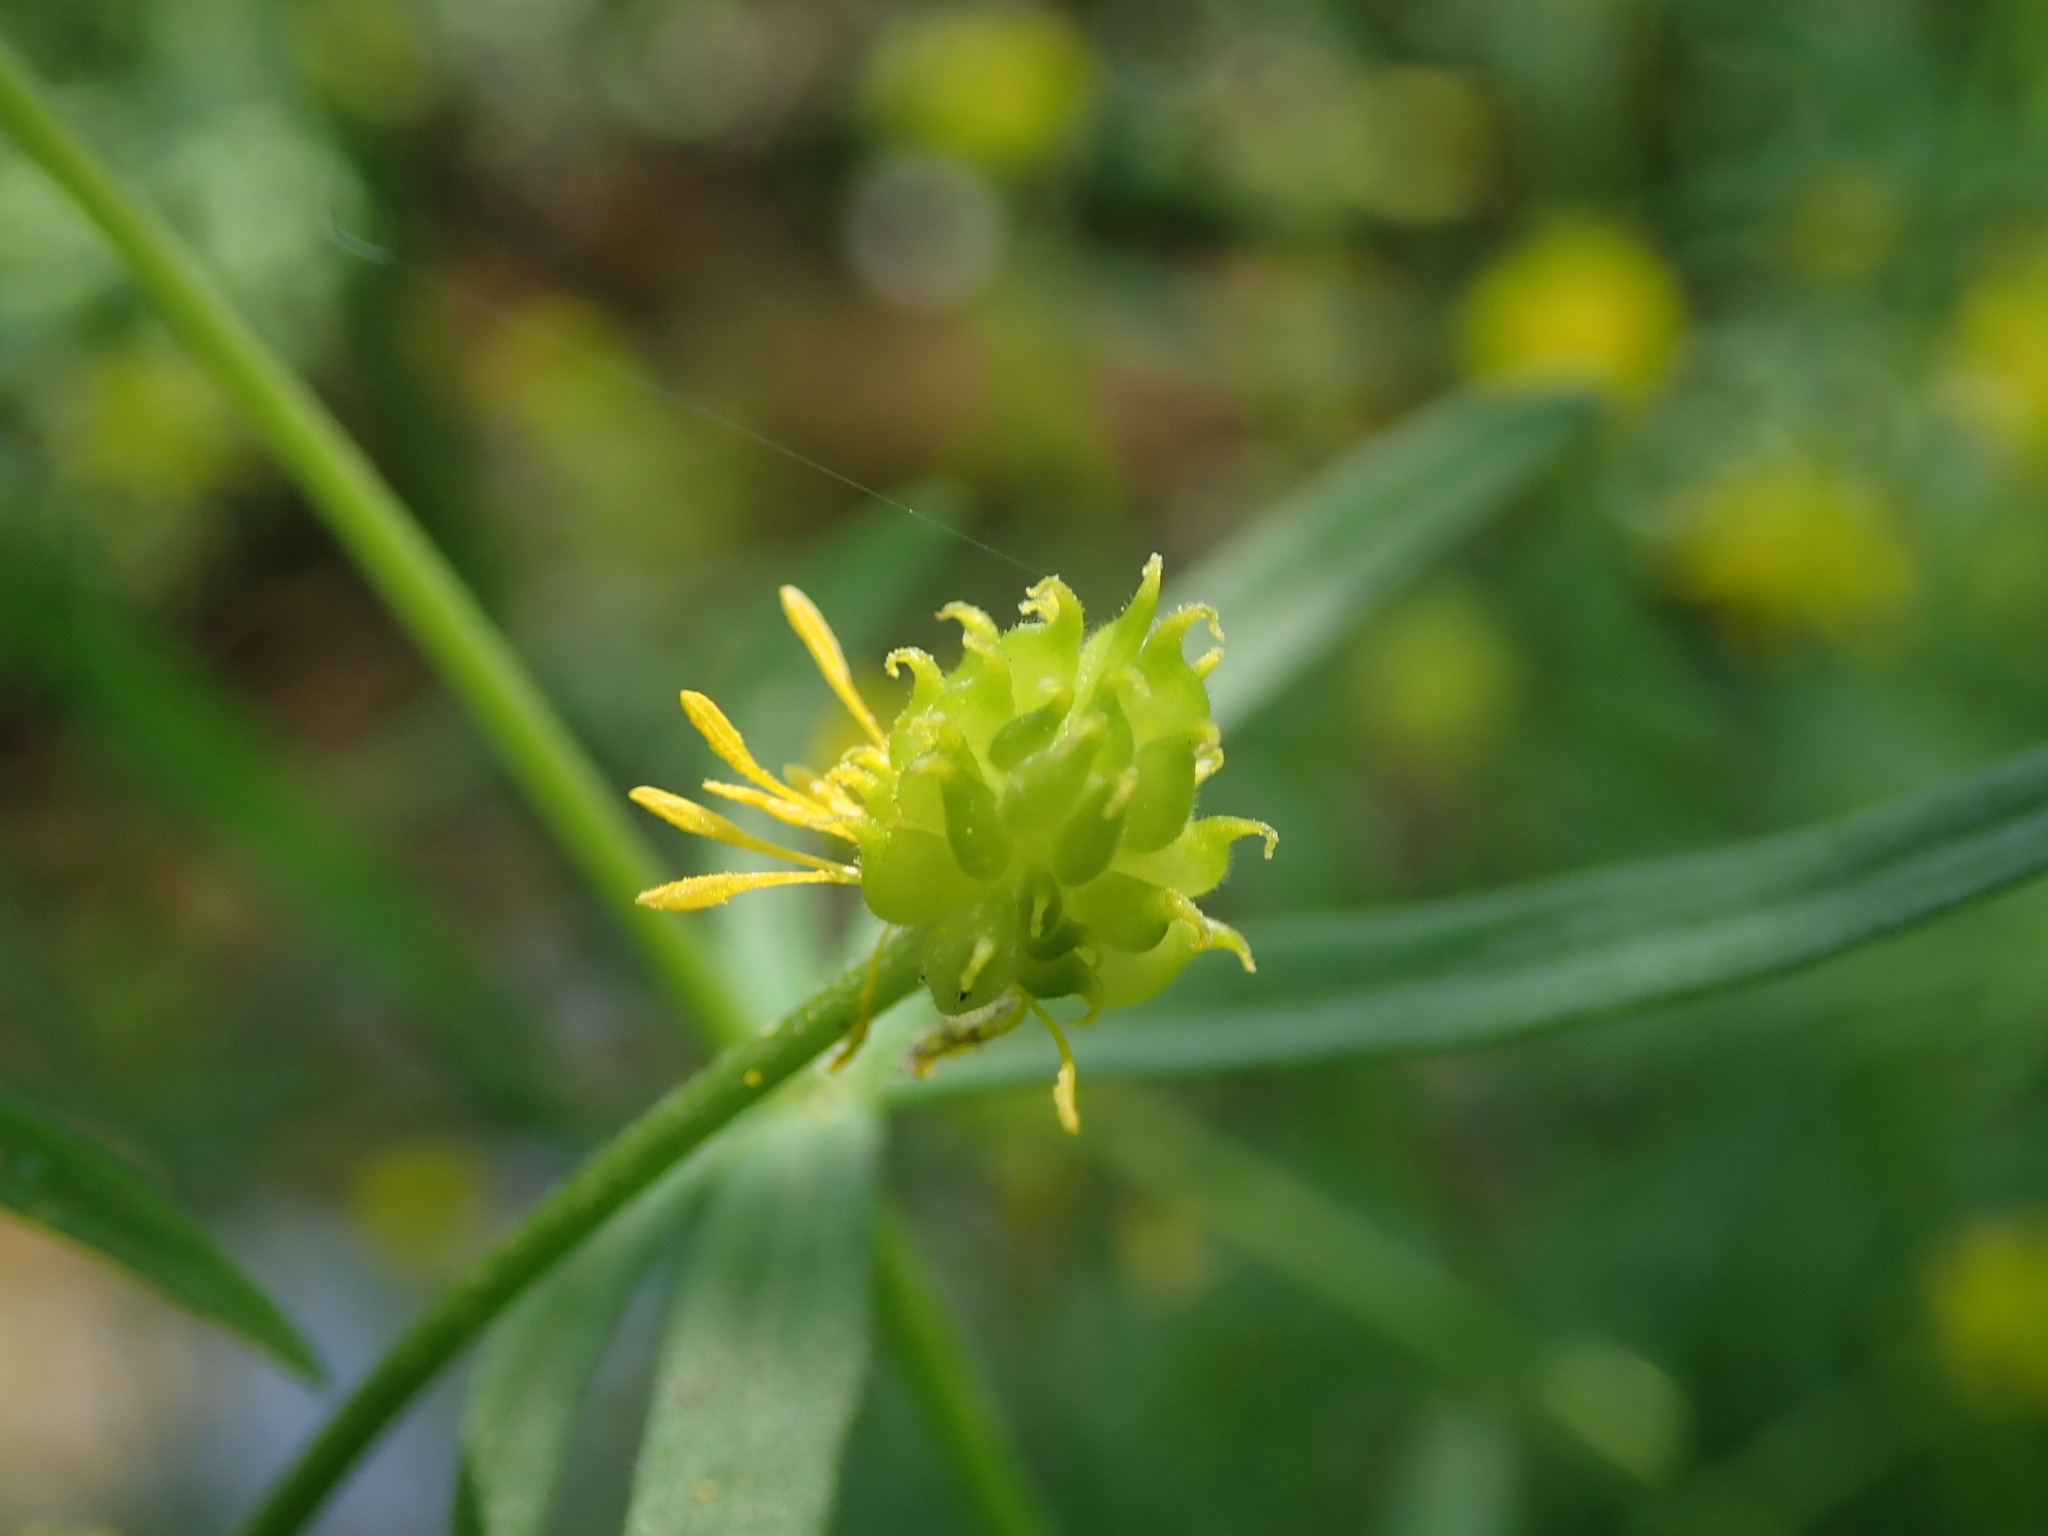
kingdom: Plantae
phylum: Tracheophyta
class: Magnoliopsida
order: Ranunculales
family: Ranunculaceae
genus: Ranunculus
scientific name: Ranunculus auricomus
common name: Goldilocks buttercup
